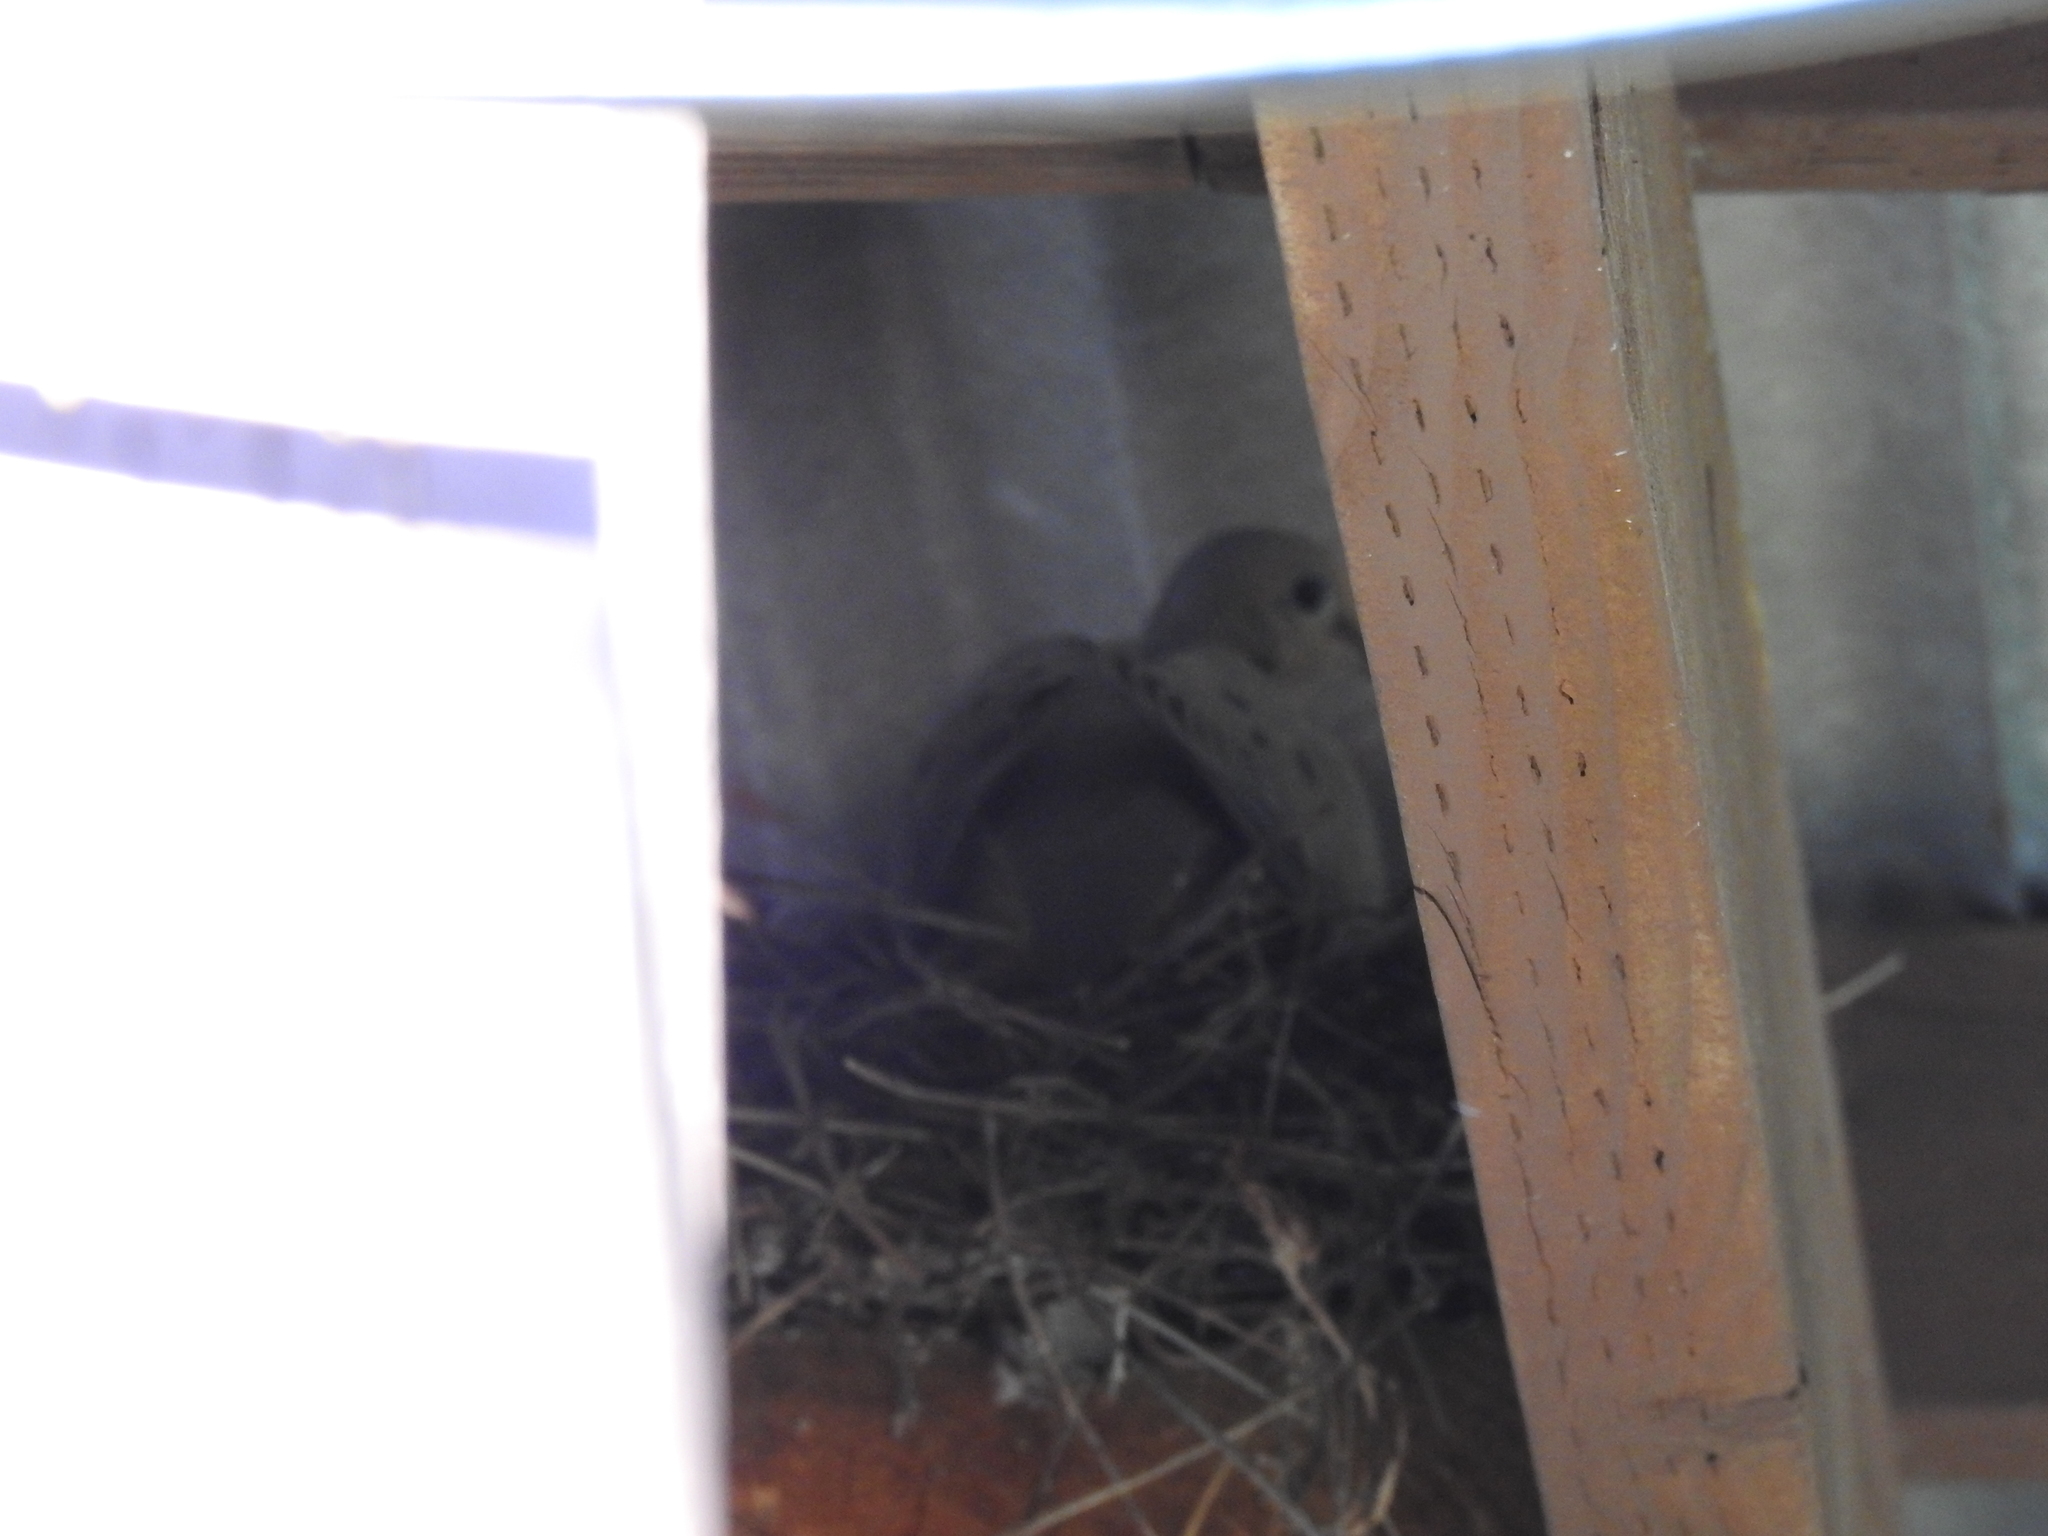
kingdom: Animalia
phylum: Chordata
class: Aves
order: Columbiformes
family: Columbidae
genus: Zenaida
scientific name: Zenaida macroura
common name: Mourning dove
